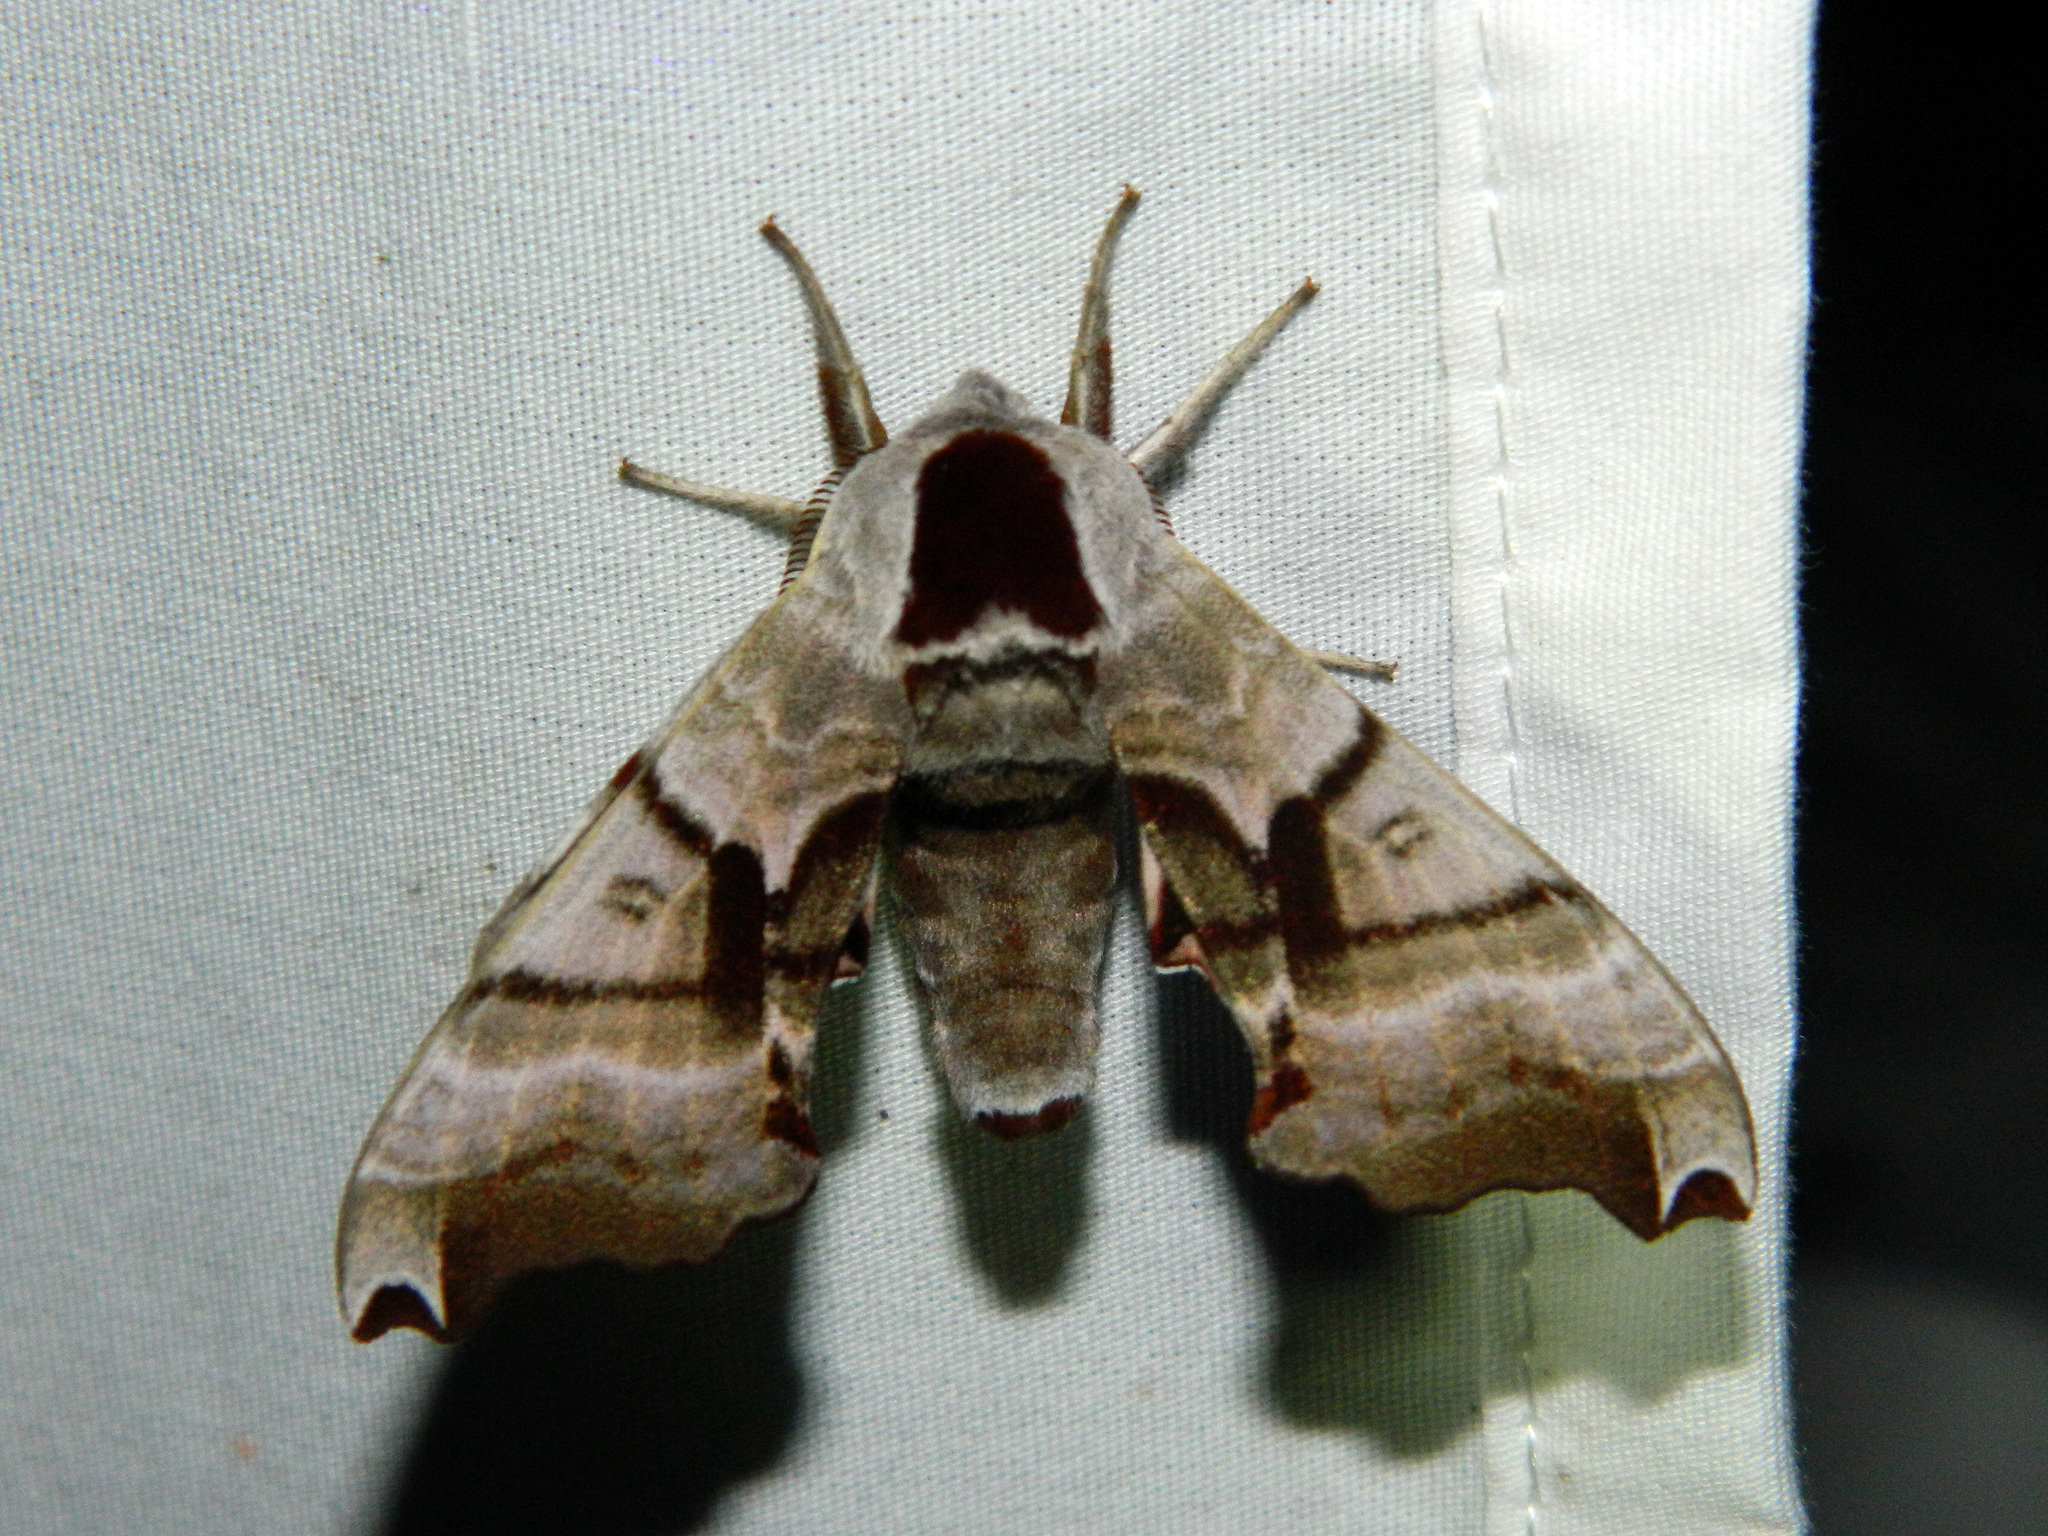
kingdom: Animalia
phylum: Arthropoda
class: Insecta
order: Lepidoptera
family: Sphingidae
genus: Smerinthus
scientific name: Smerinthus jamaicensis
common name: Twin spotted sphinx
